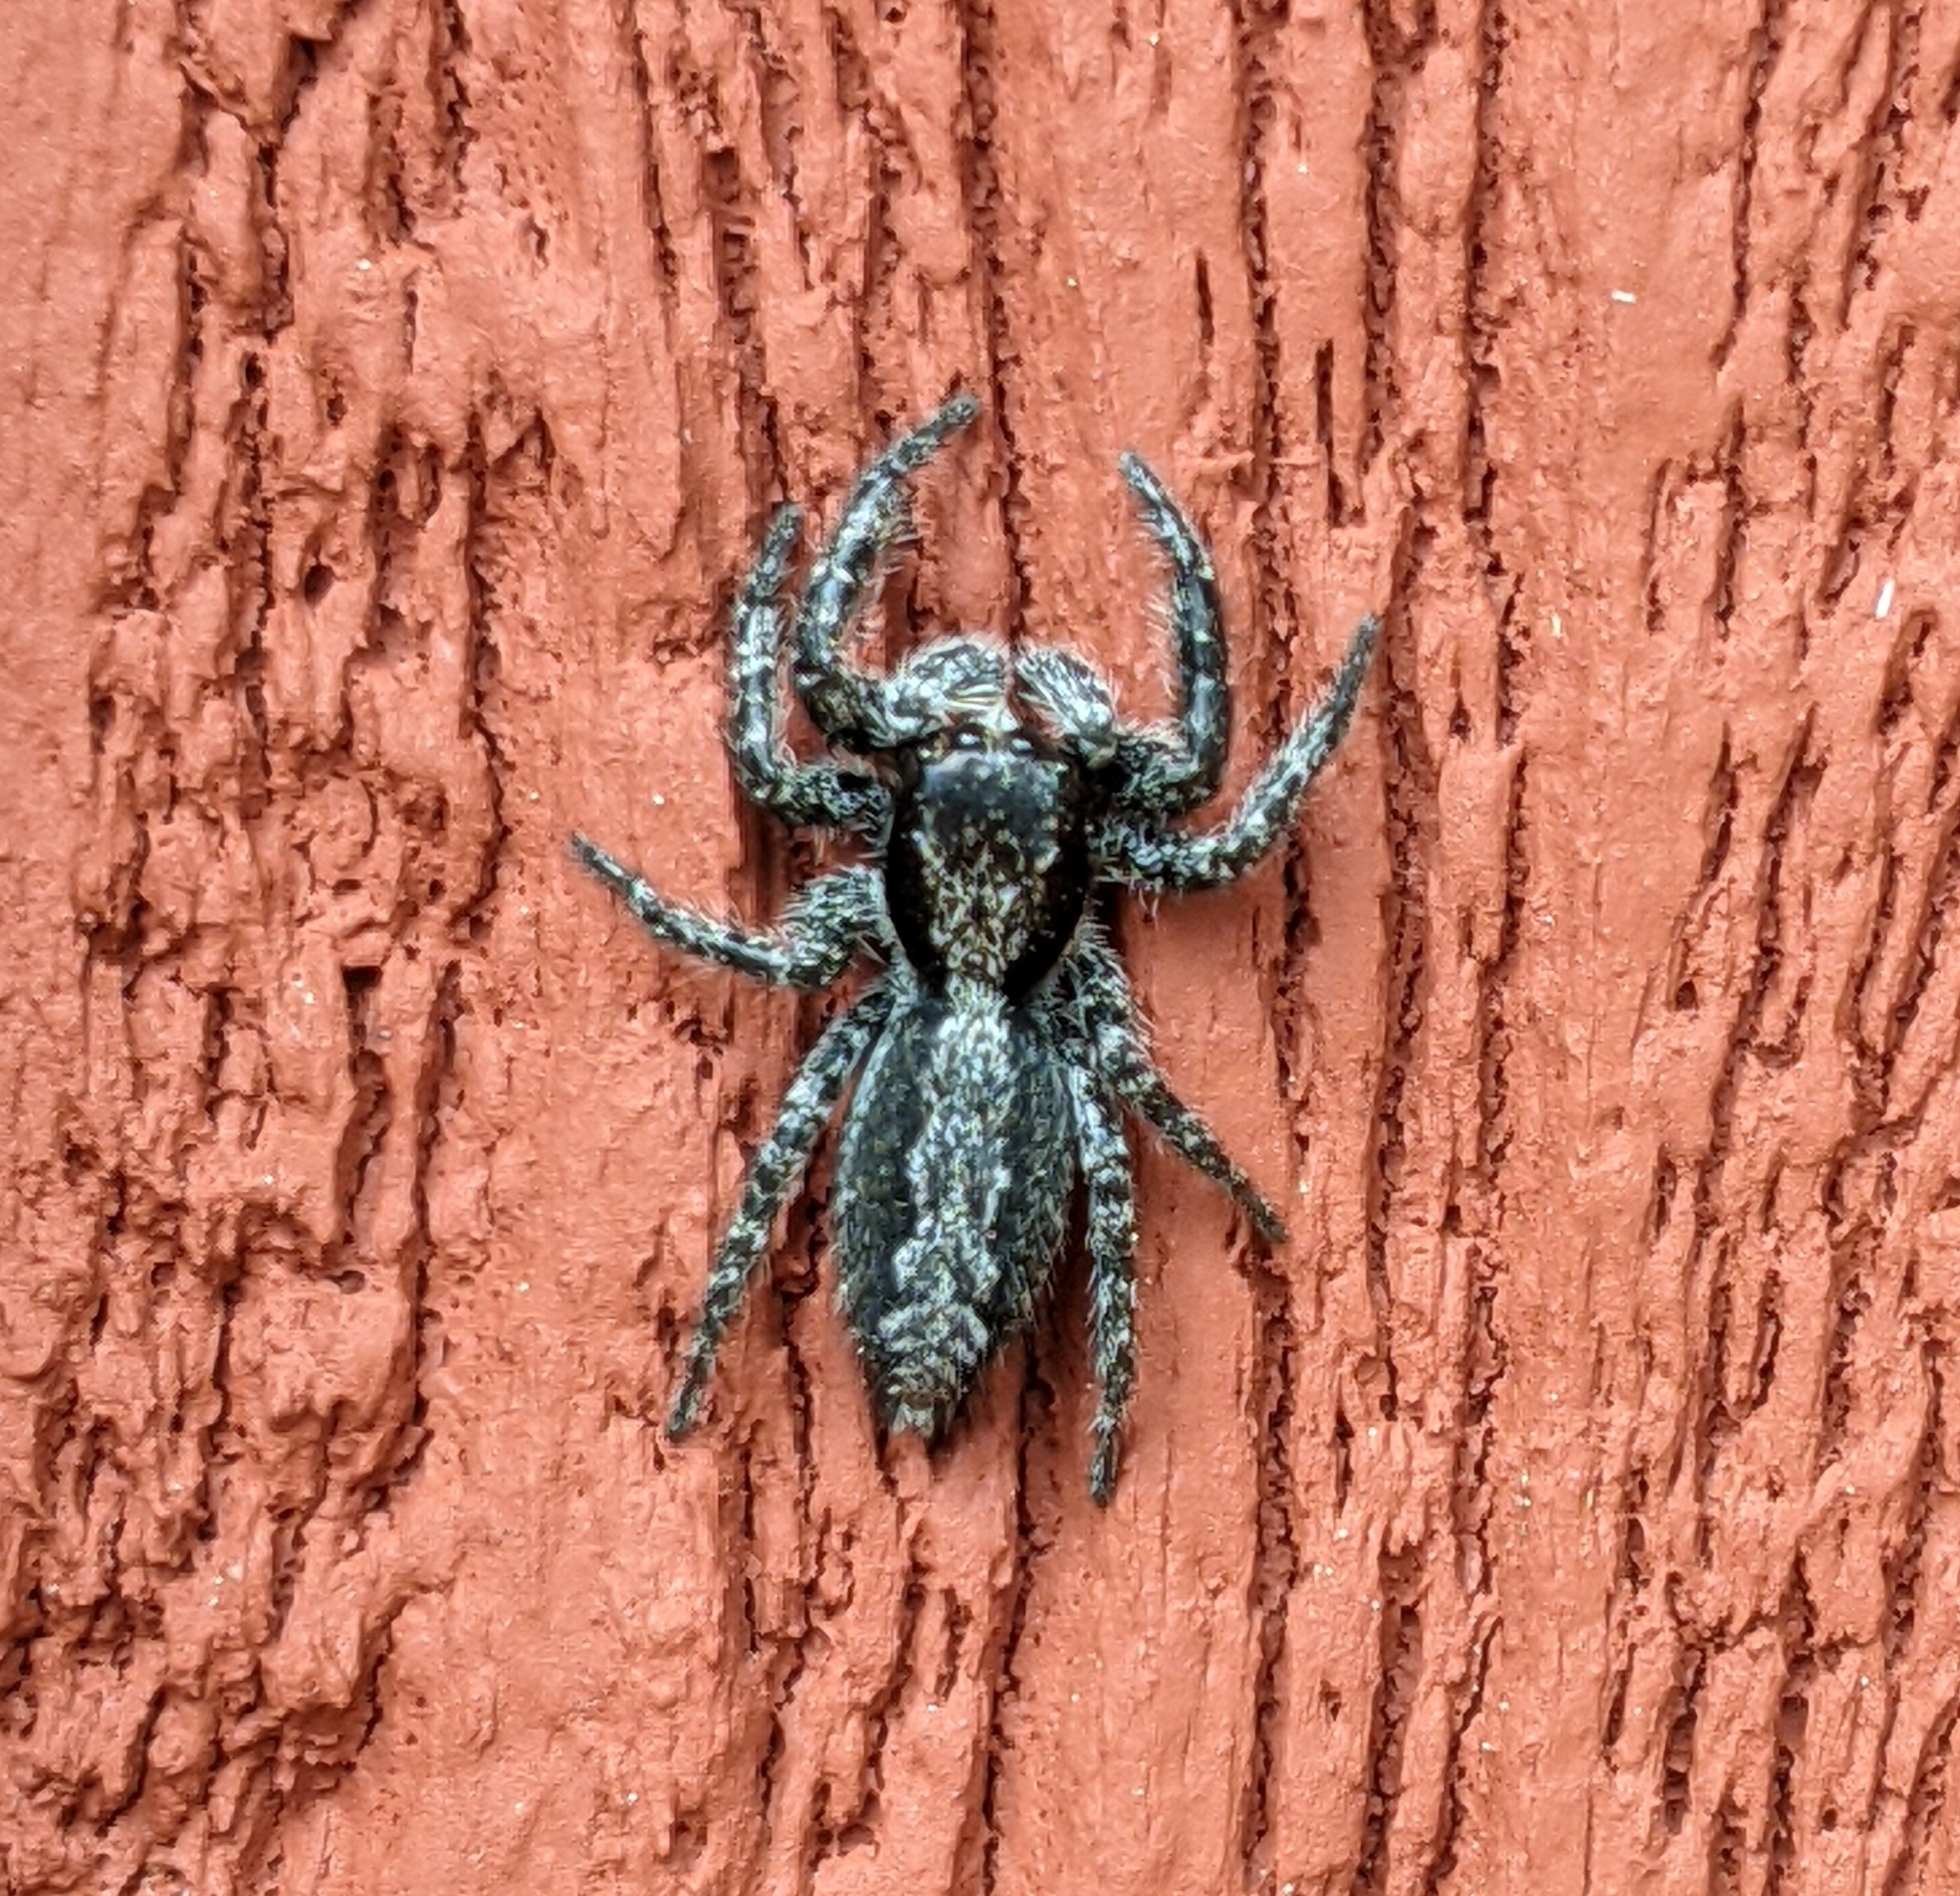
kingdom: Animalia
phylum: Arthropoda
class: Arachnida
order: Araneae
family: Salticidae
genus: Platycryptus
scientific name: Platycryptus californicus
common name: Jumping spiders
